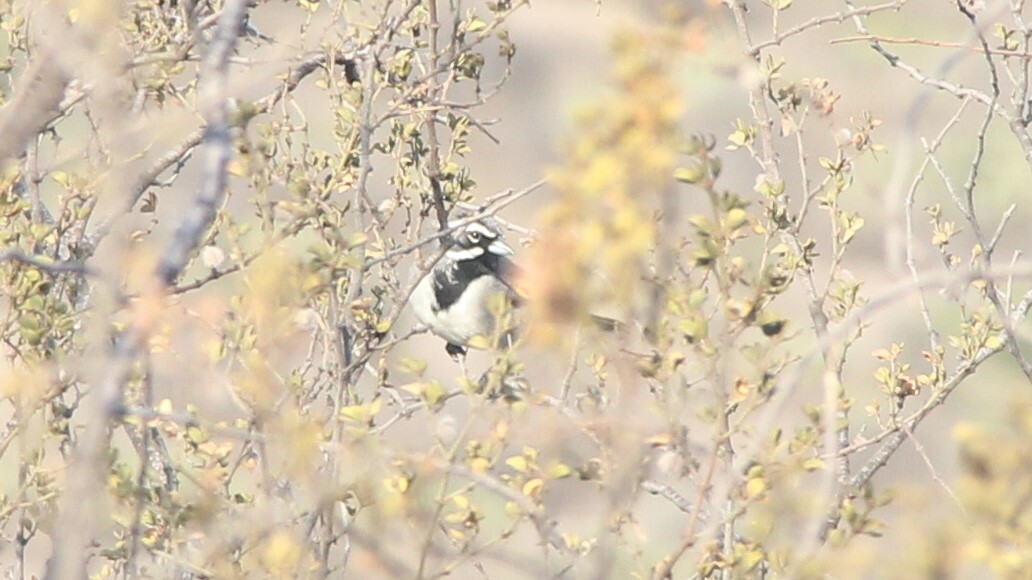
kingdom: Animalia
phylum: Chordata
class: Aves
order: Passeriformes
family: Passerellidae
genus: Amphispiza
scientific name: Amphispiza bilineata
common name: Black-throated sparrow
